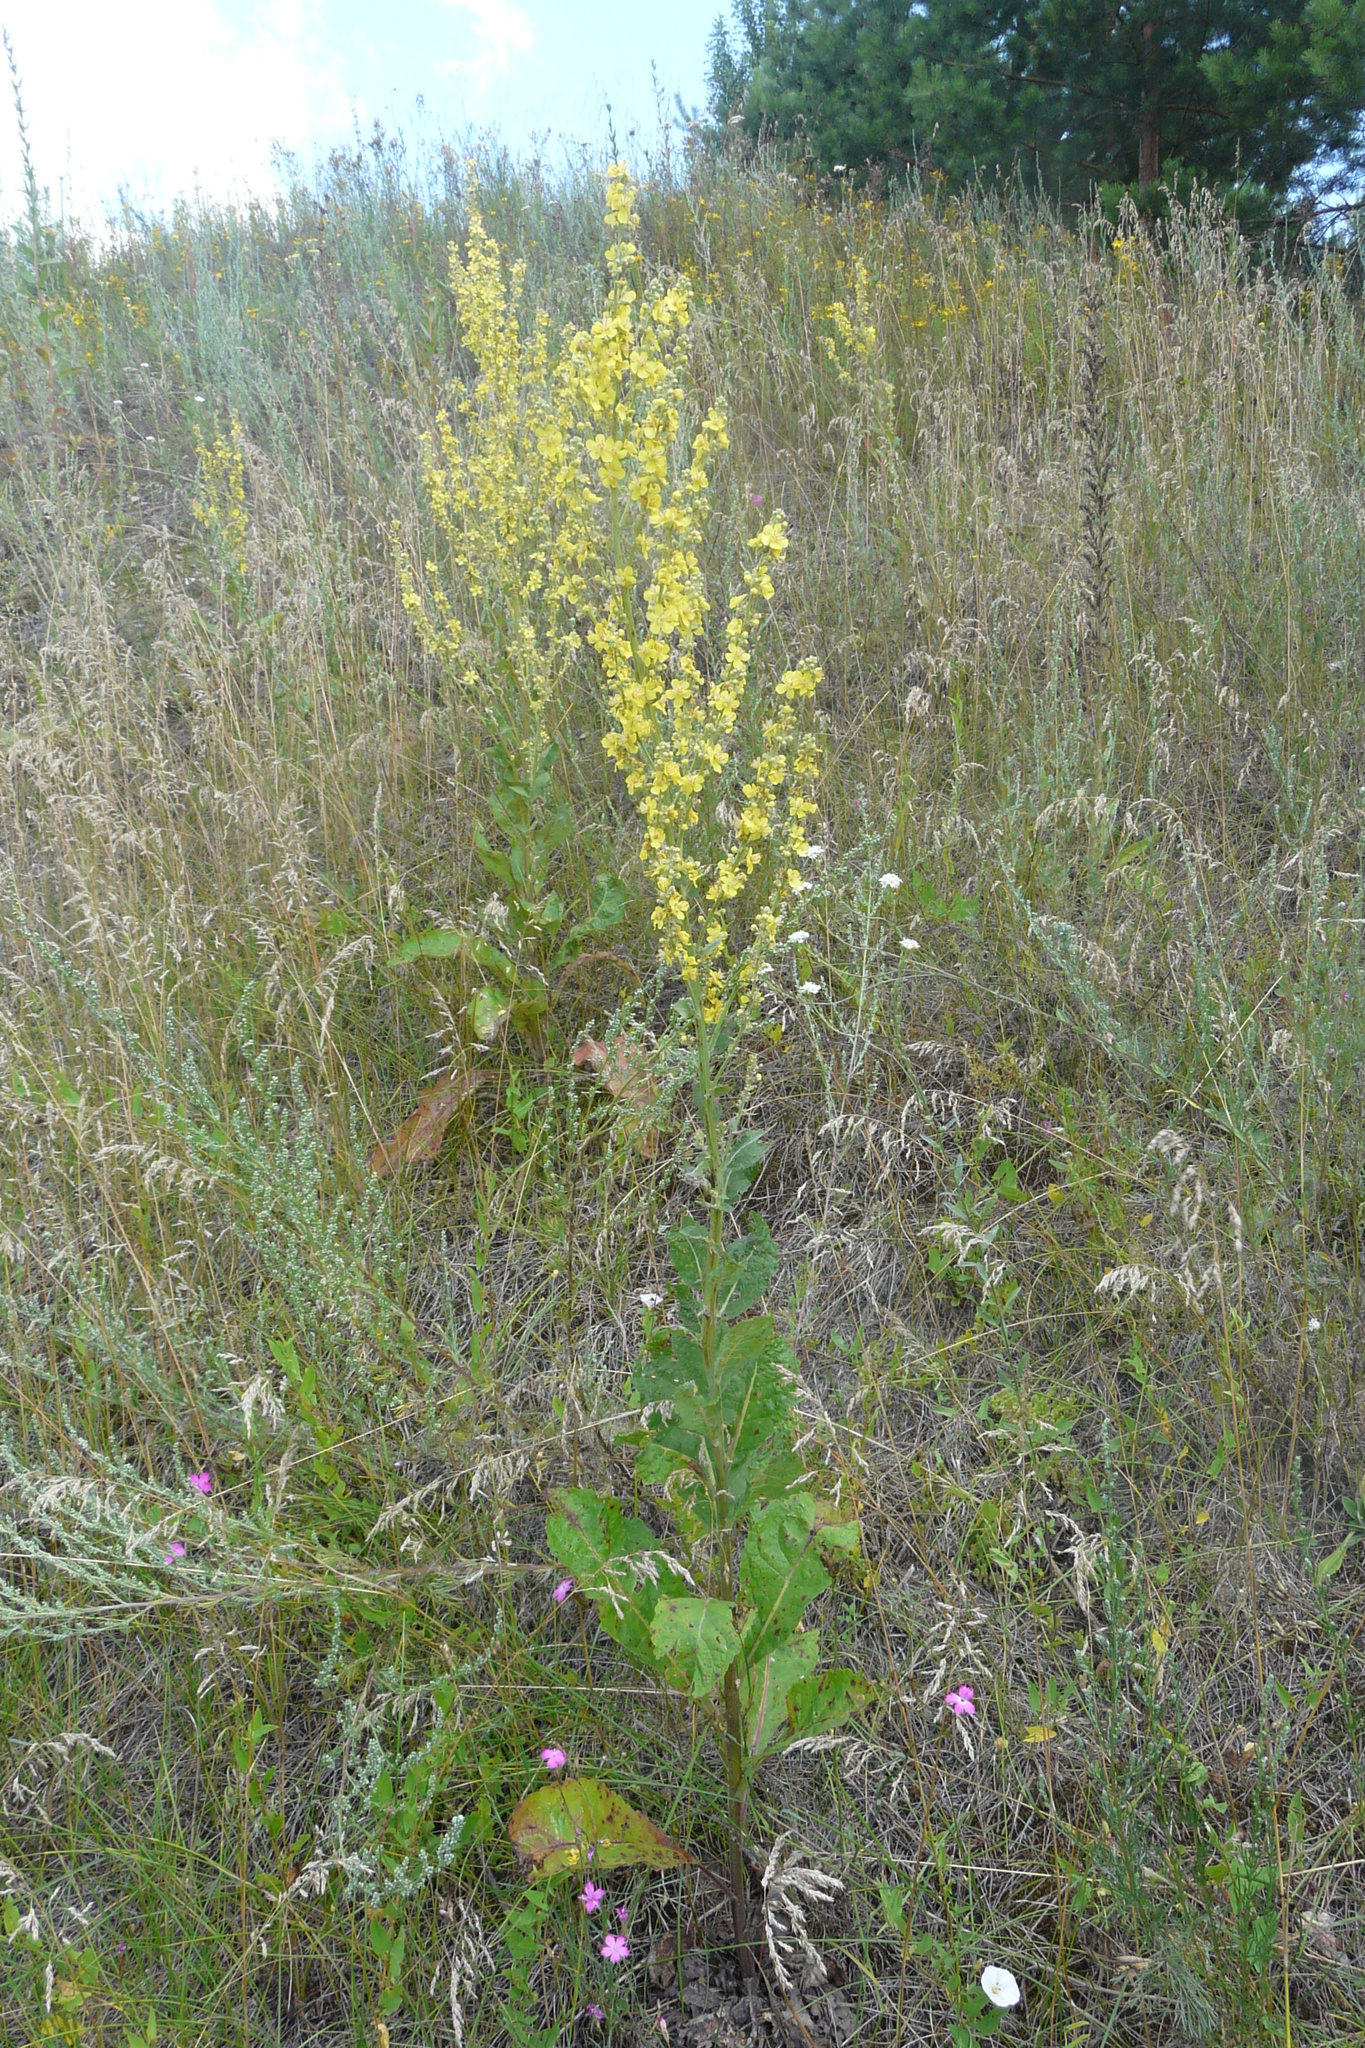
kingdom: Plantae
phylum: Tracheophyta
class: Magnoliopsida
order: Lamiales
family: Scrophulariaceae
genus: Verbascum
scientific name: Verbascum lychnitis
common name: White mullein
